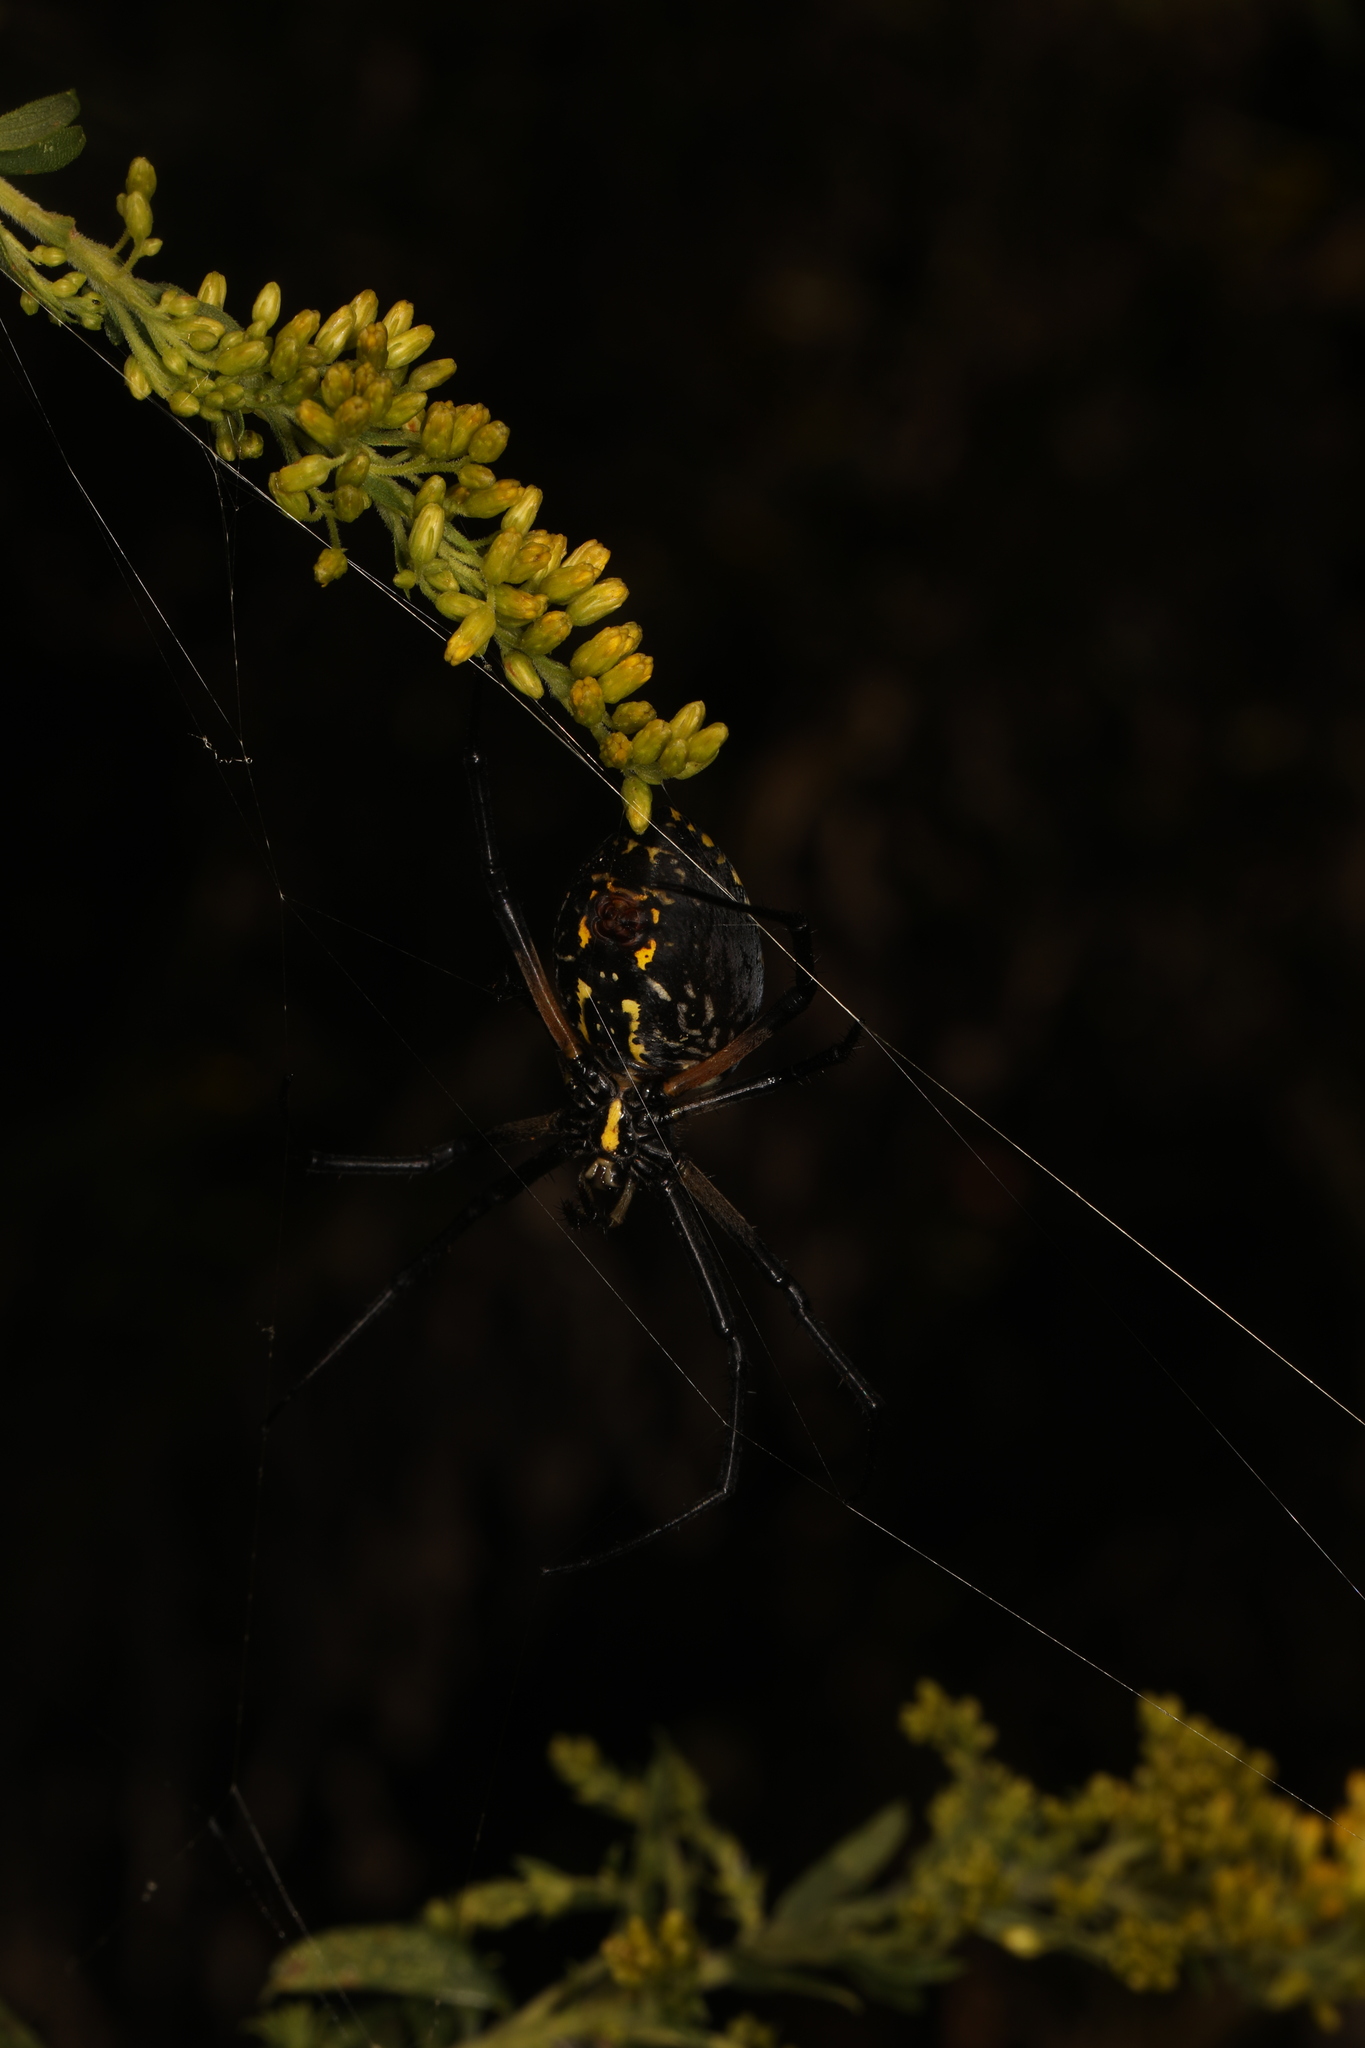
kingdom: Animalia
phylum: Arthropoda
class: Arachnida
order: Araneae
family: Araneidae
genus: Argiope
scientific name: Argiope aurantia
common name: Orb weavers
